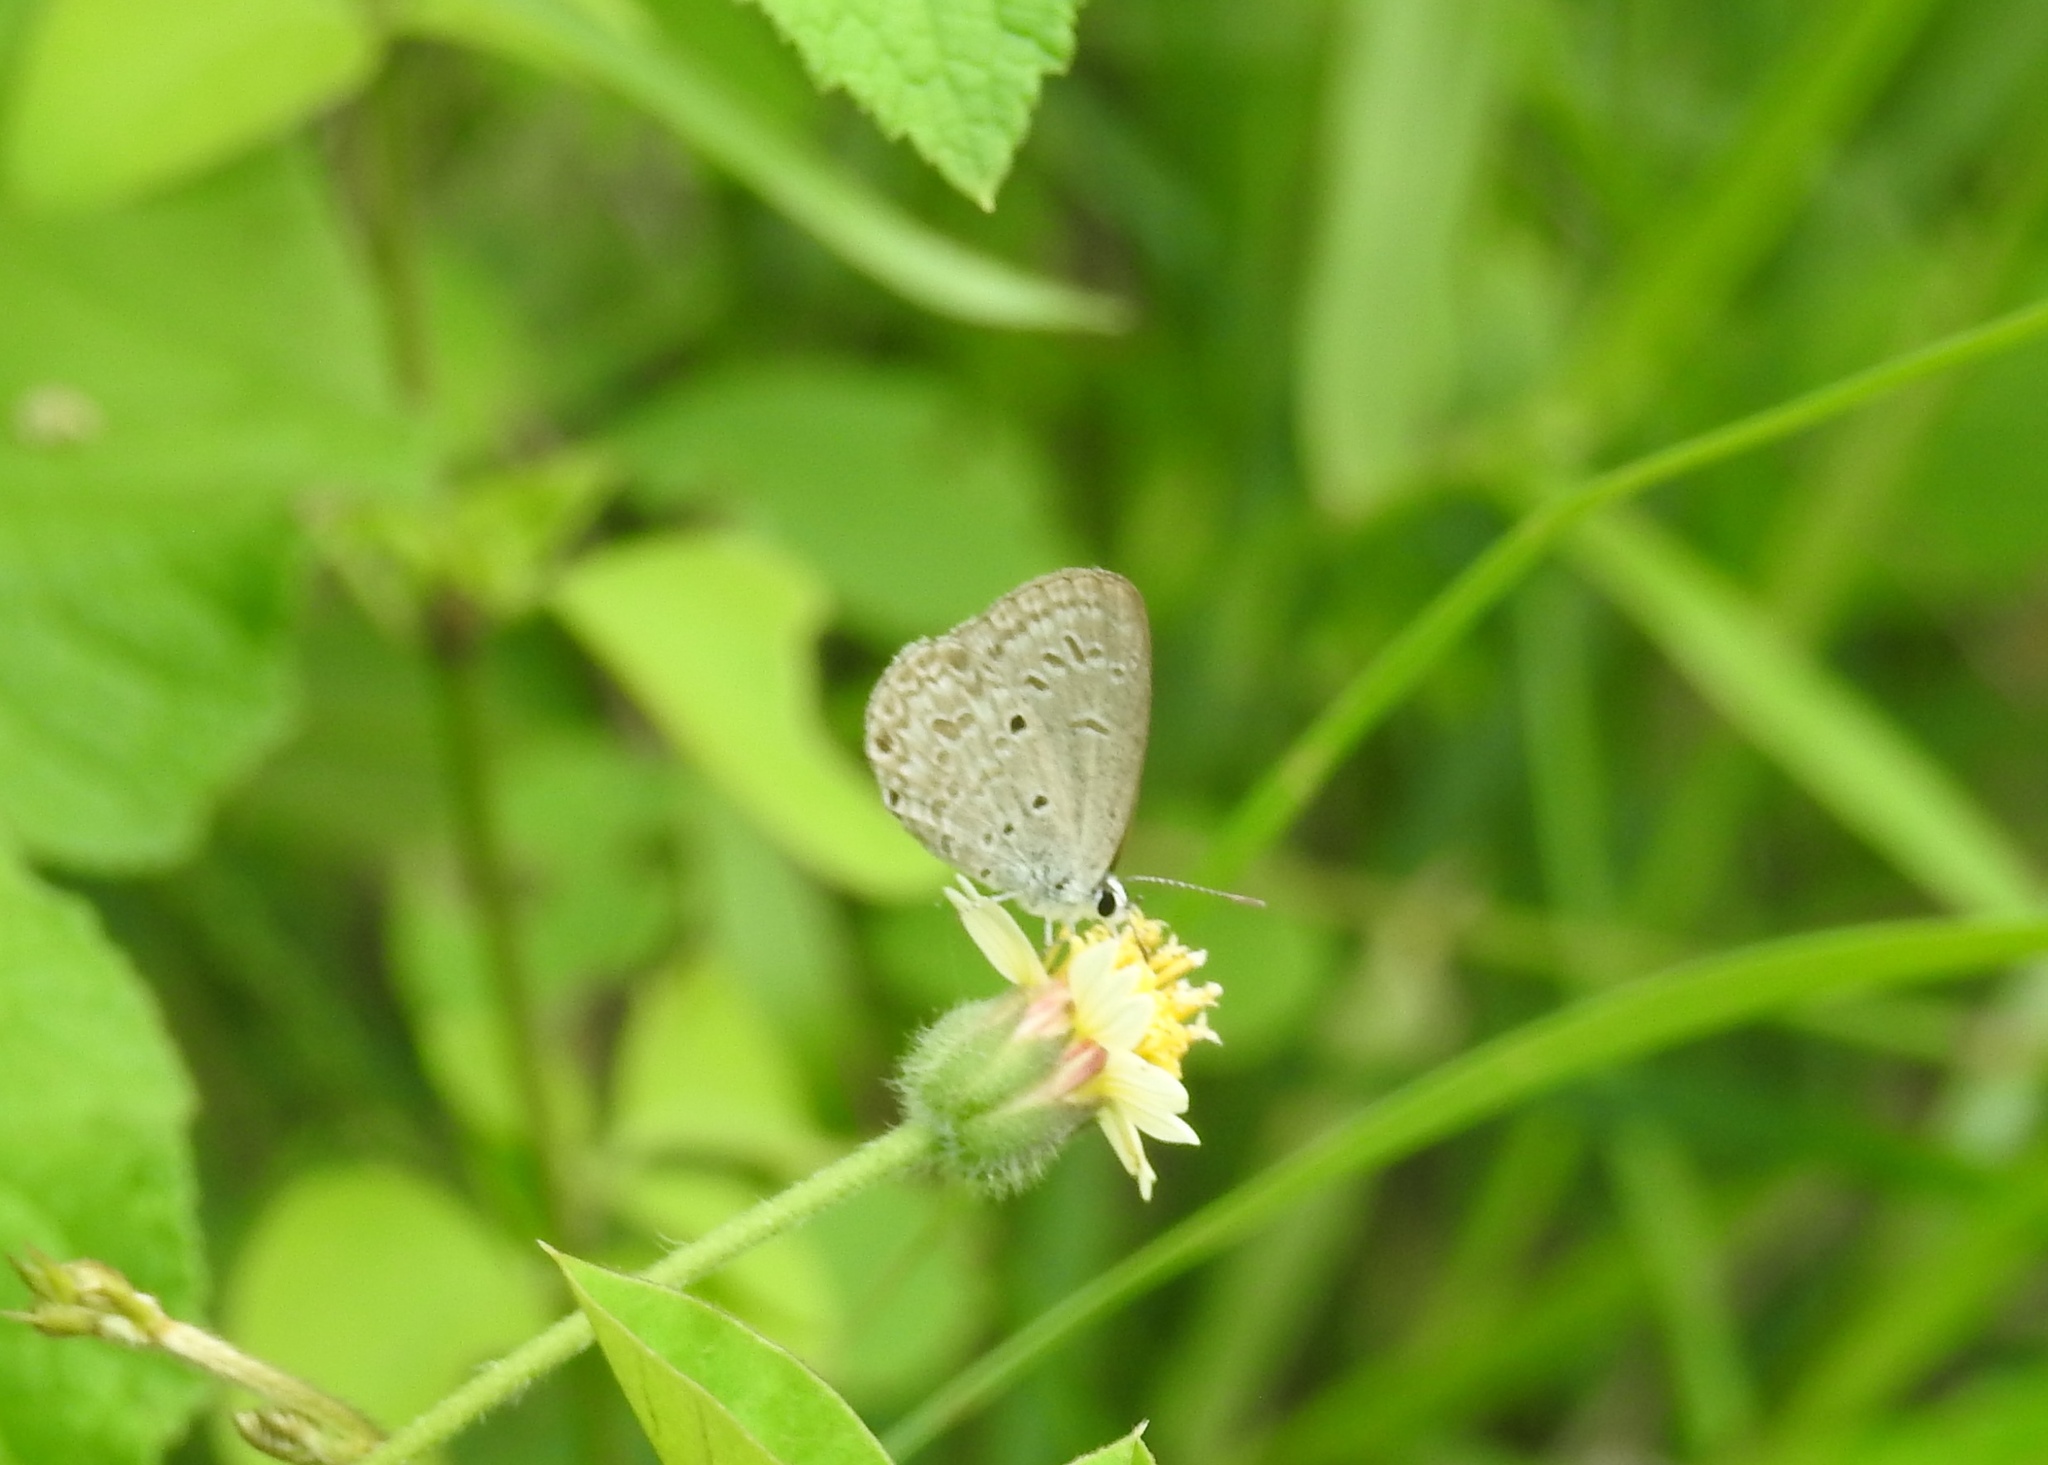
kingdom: Animalia
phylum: Arthropoda
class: Insecta
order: Lepidoptera
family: Lycaenidae
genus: Chilades
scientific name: Chilades laius
